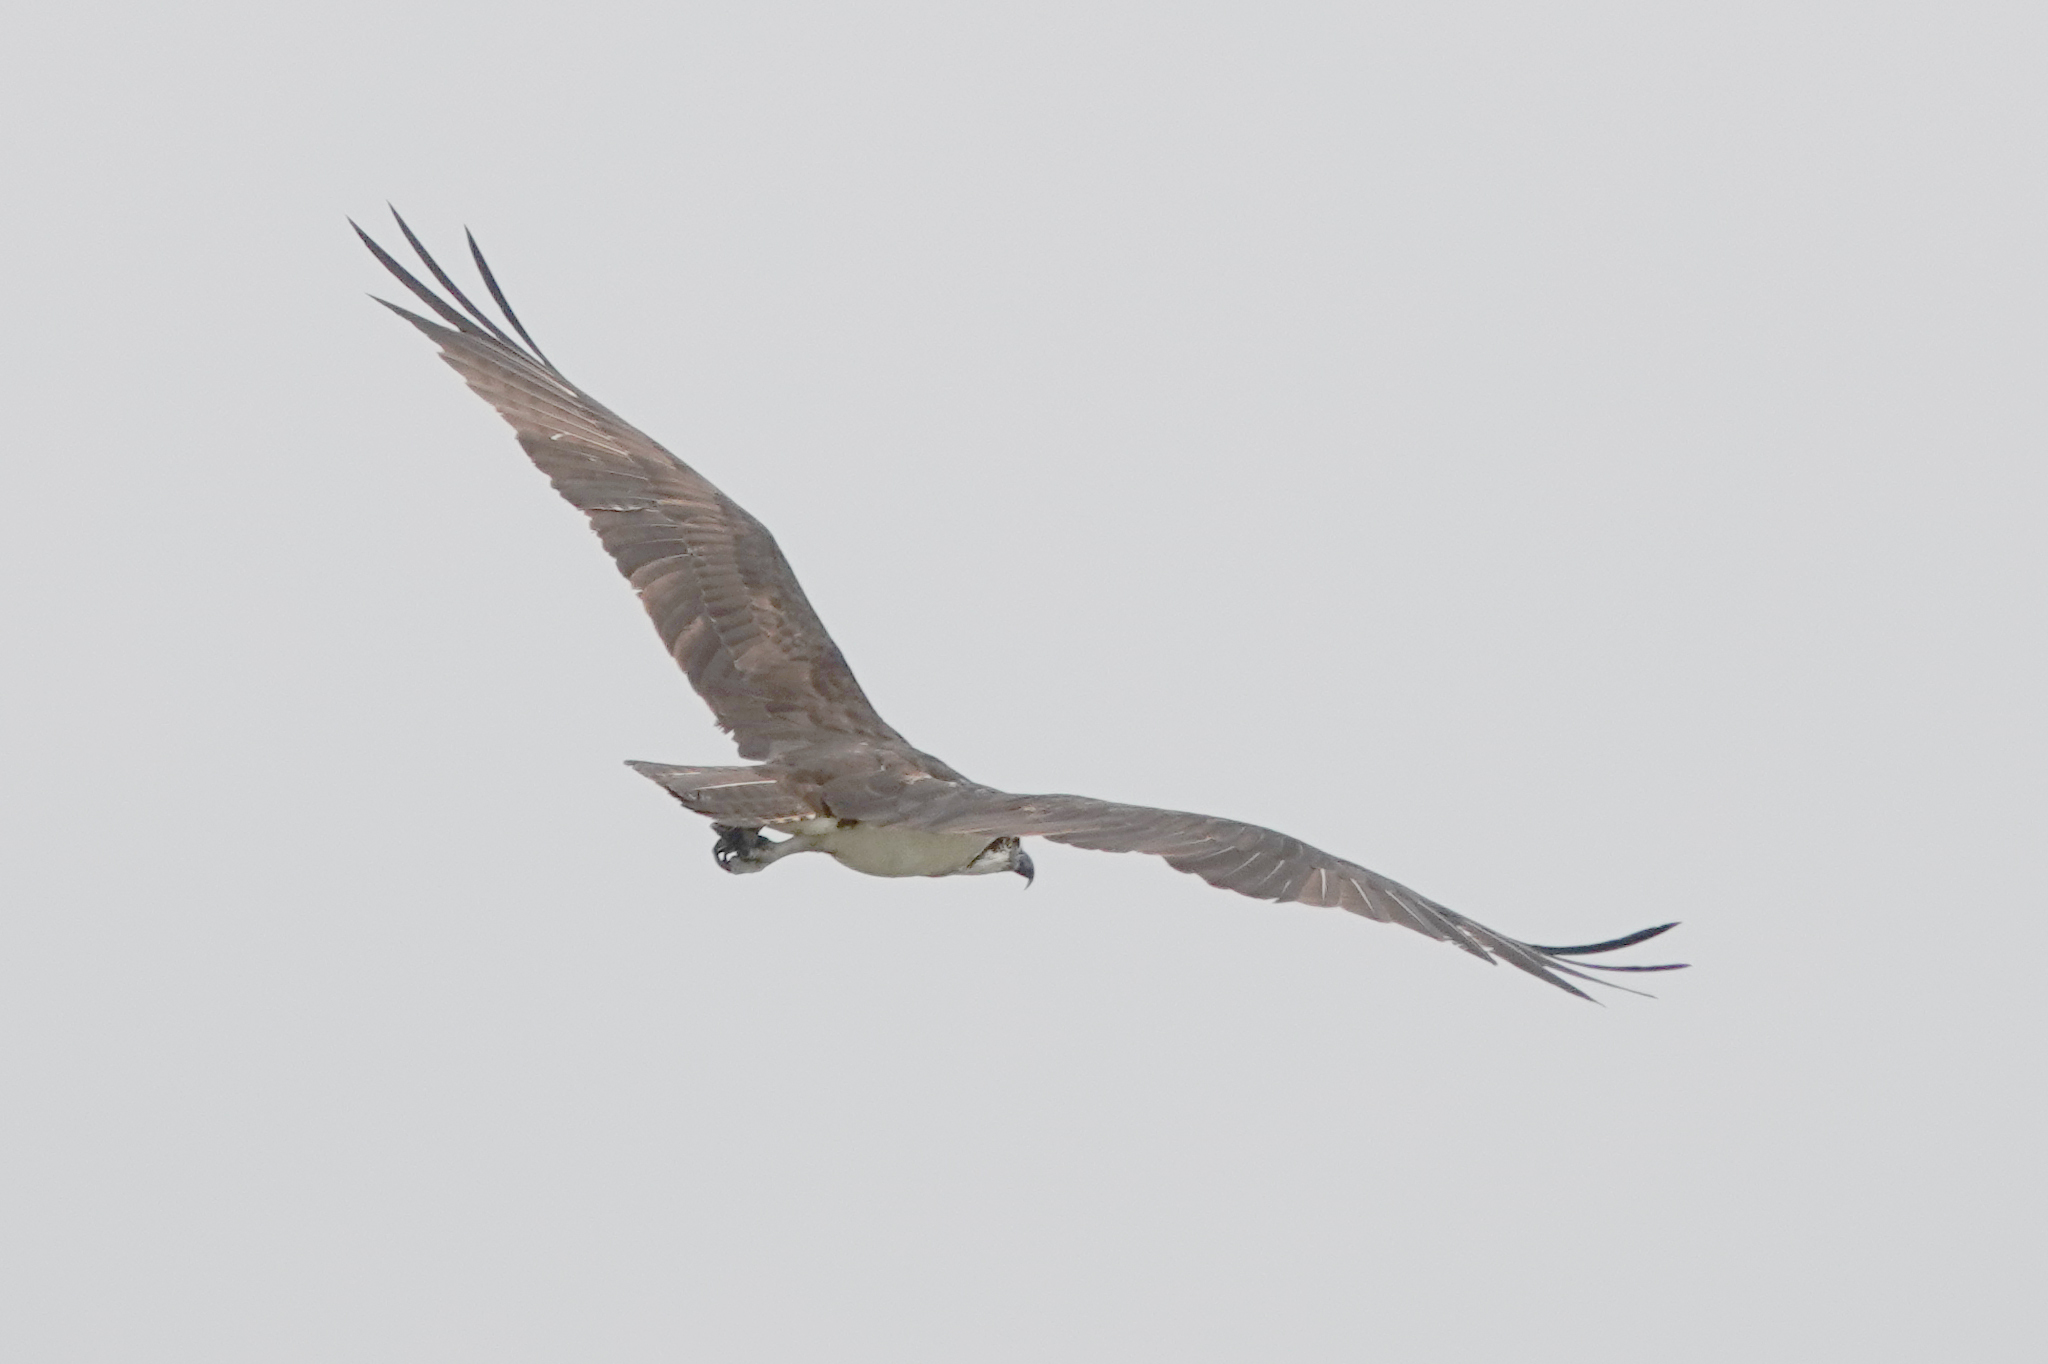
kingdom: Animalia
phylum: Chordata
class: Aves
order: Accipitriformes
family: Pandionidae
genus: Pandion
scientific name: Pandion haliaetus
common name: Osprey
